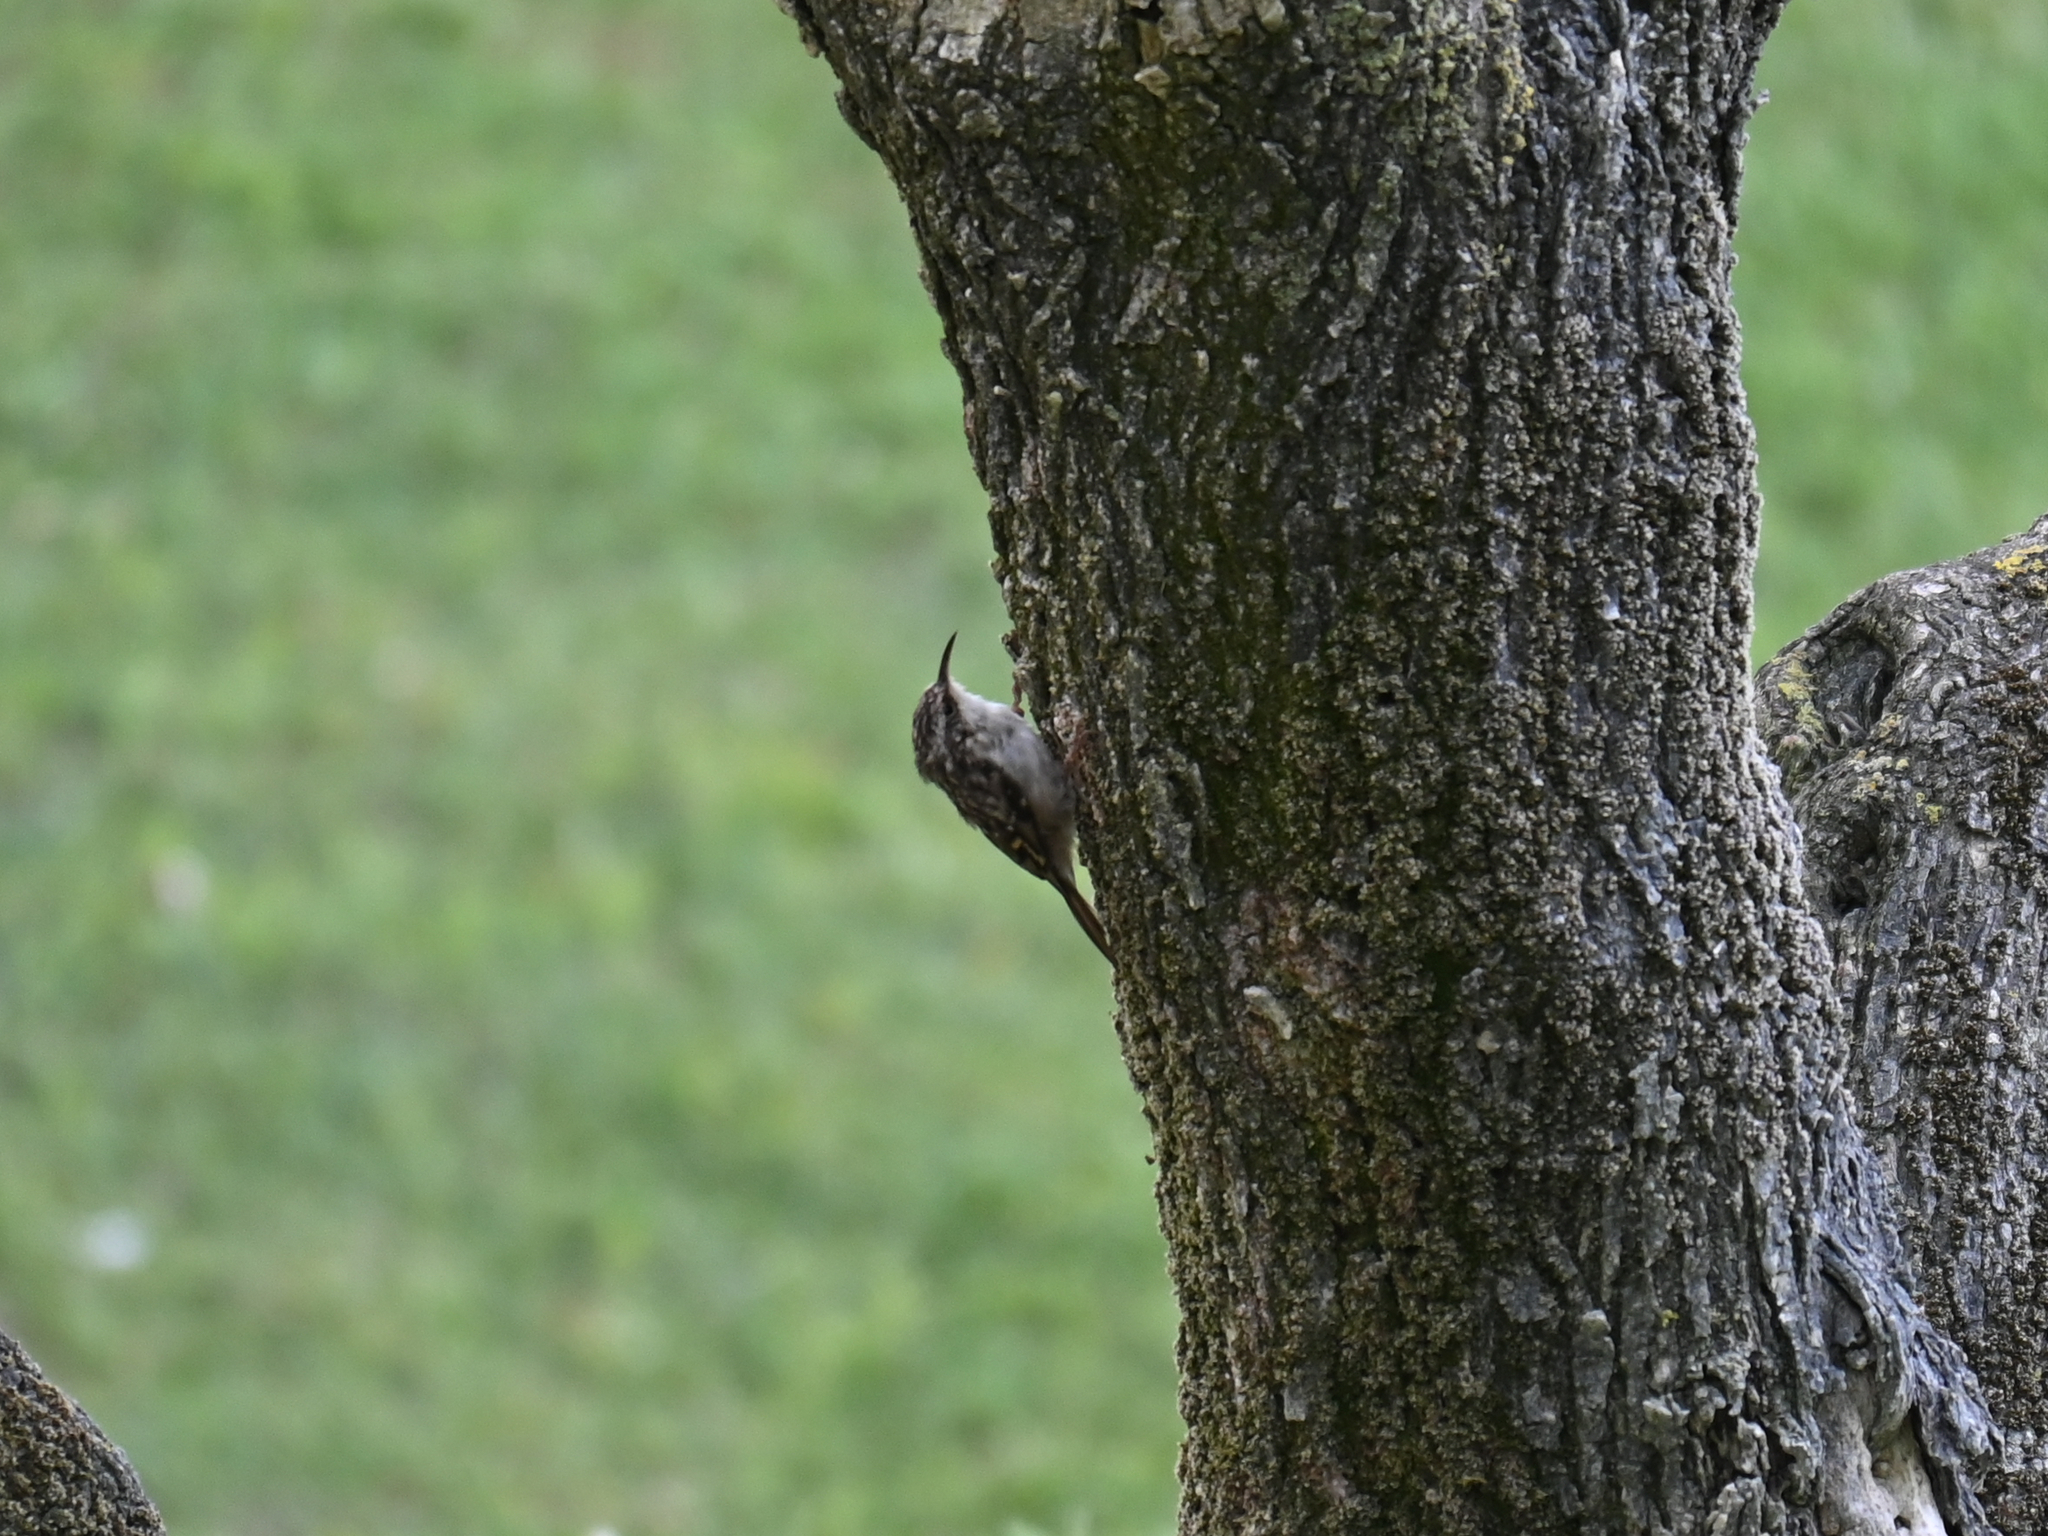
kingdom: Animalia
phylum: Chordata
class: Aves
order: Passeriformes
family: Certhiidae
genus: Certhia
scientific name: Certhia brachydactyla
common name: Short-toed treecreeper
